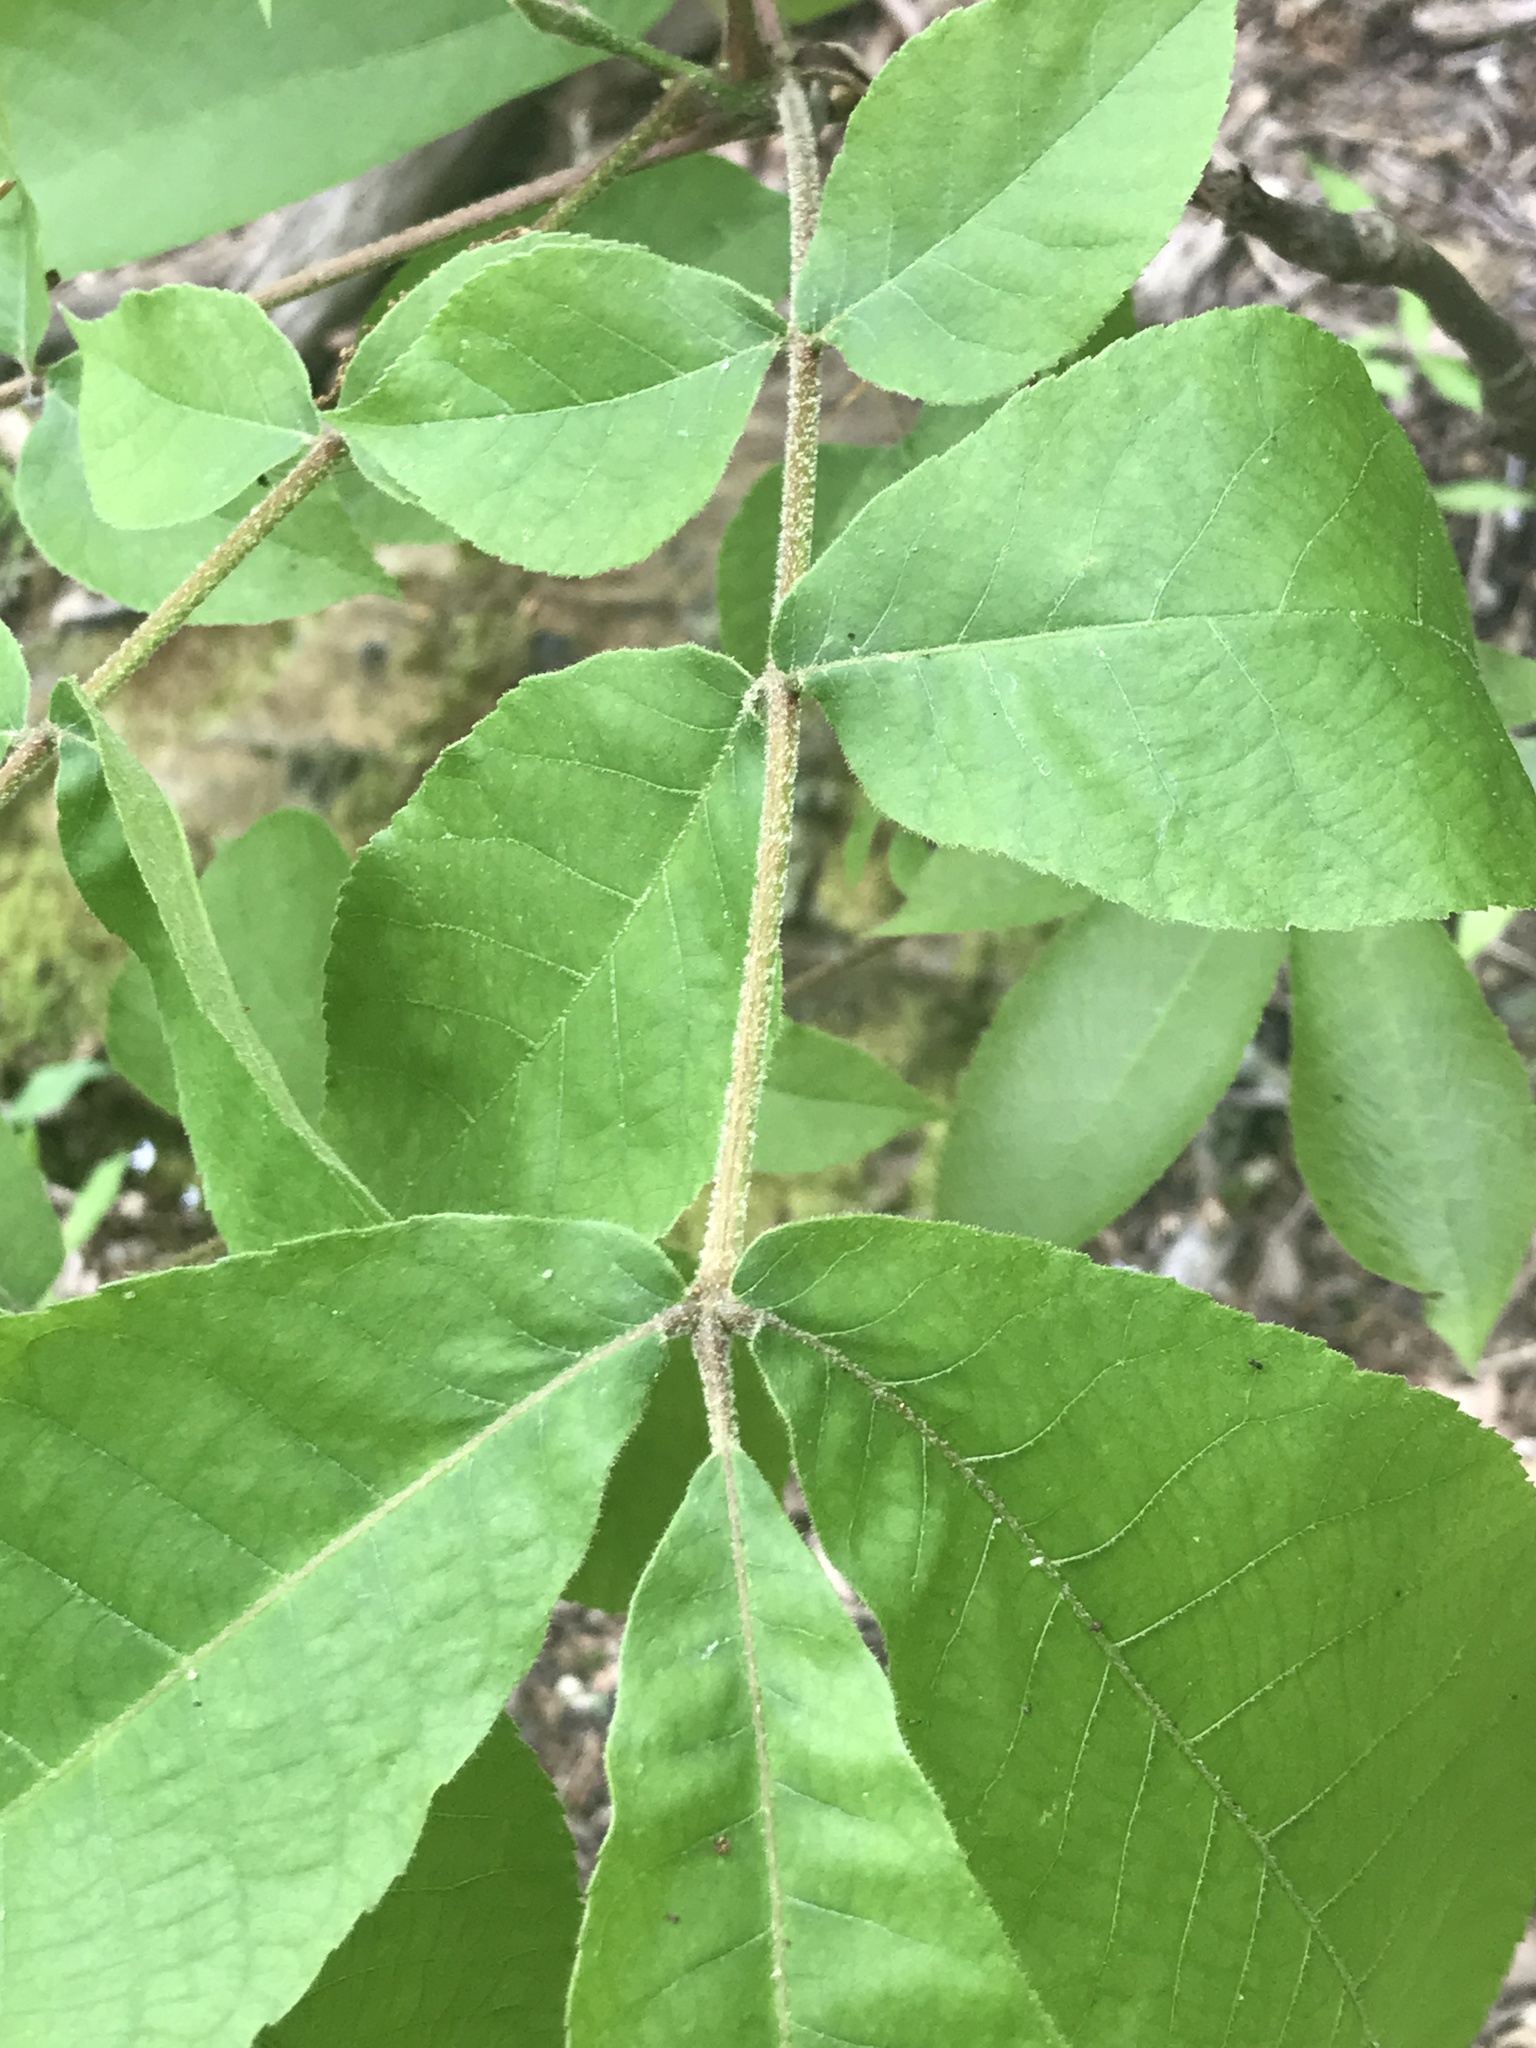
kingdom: Plantae
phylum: Tracheophyta
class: Magnoliopsida
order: Fagales
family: Juglandaceae
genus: Carya
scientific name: Carya alba
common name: Mockernut hickory
